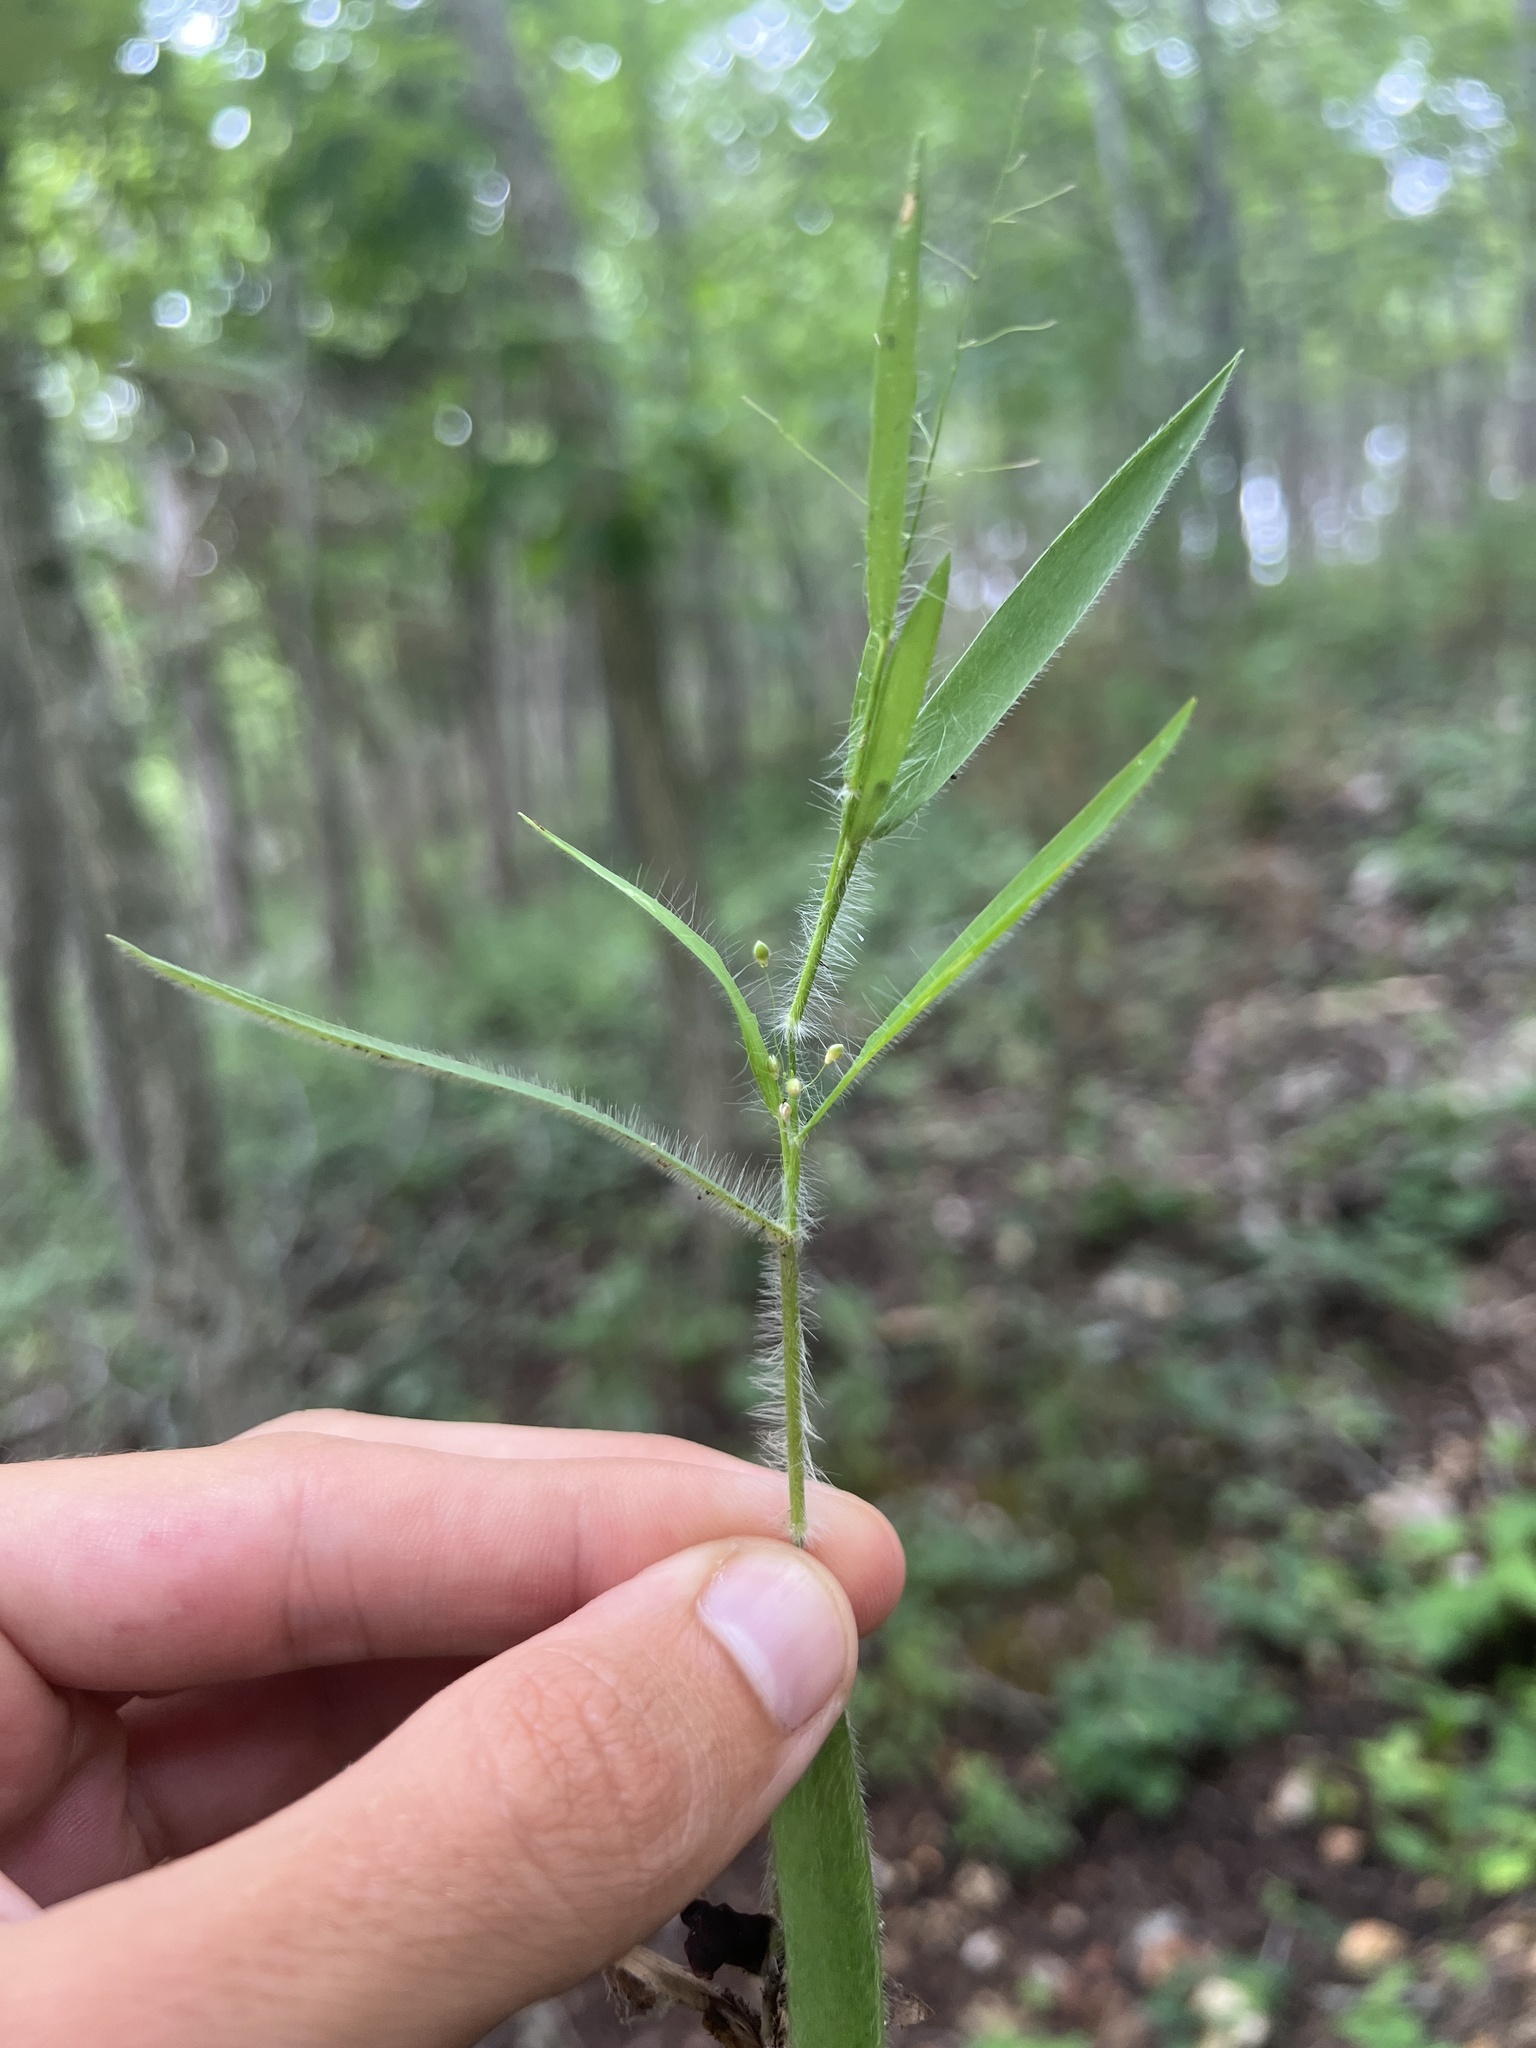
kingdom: Plantae
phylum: Tracheophyta
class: Liliopsida
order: Poales
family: Poaceae
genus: Dichanthelium
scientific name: Dichanthelium villosissimum
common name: White-haired panicgrass
